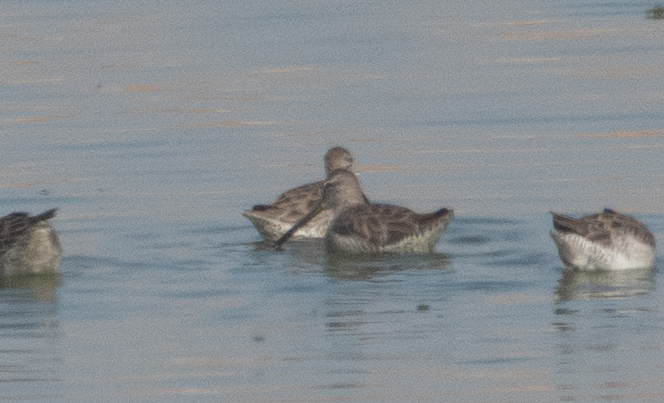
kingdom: Animalia
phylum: Chordata
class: Aves
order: Charadriiformes
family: Scolopacidae
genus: Limnodromus
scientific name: Limnodromus scolopaceus
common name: Long-billed dowitcher
